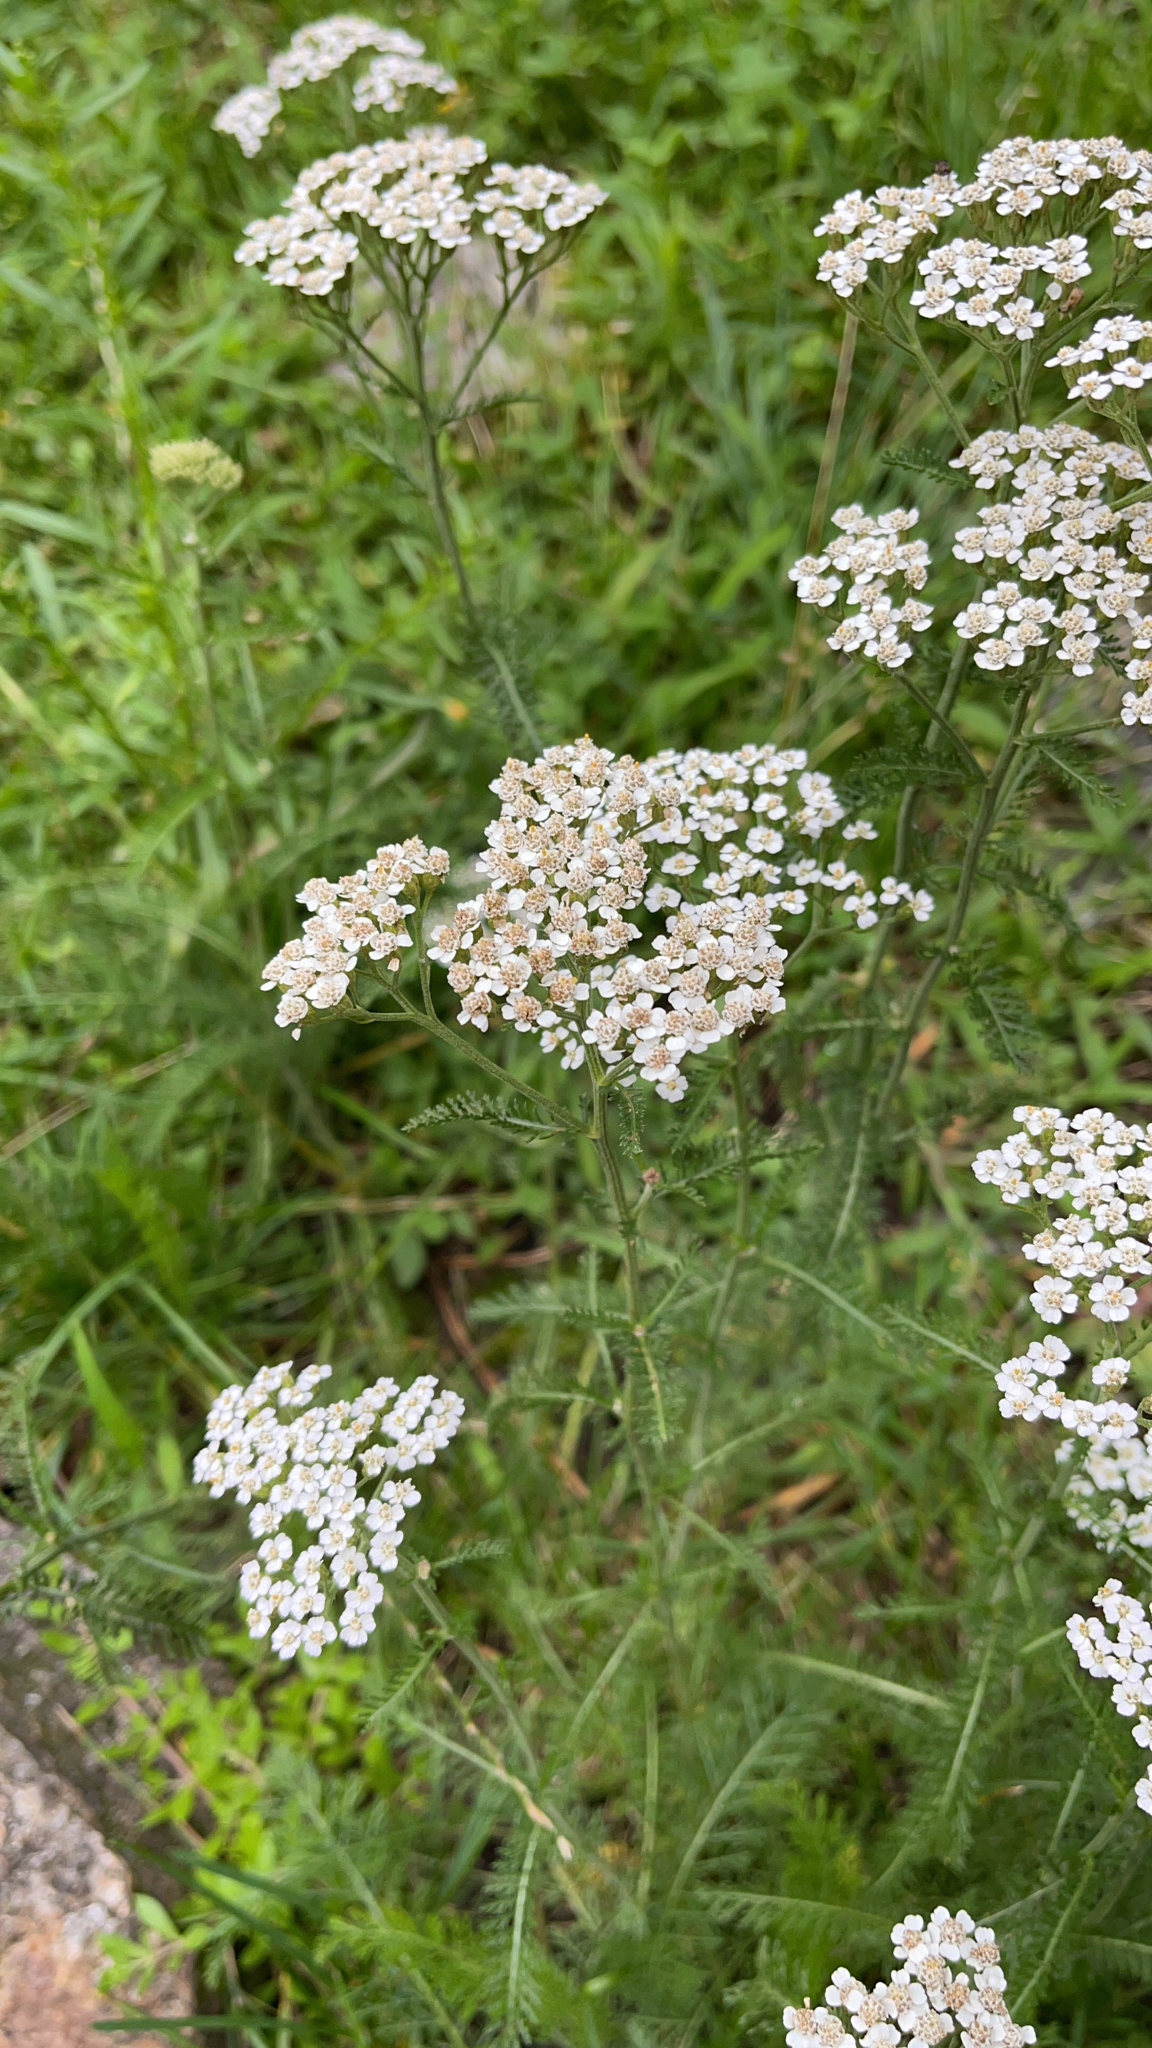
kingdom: Plantae
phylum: Tracheophyta
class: Magnoliopsida
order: Asterales
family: Asteraceae
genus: Achillea
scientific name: Achillea millefolium
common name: Yarrow
